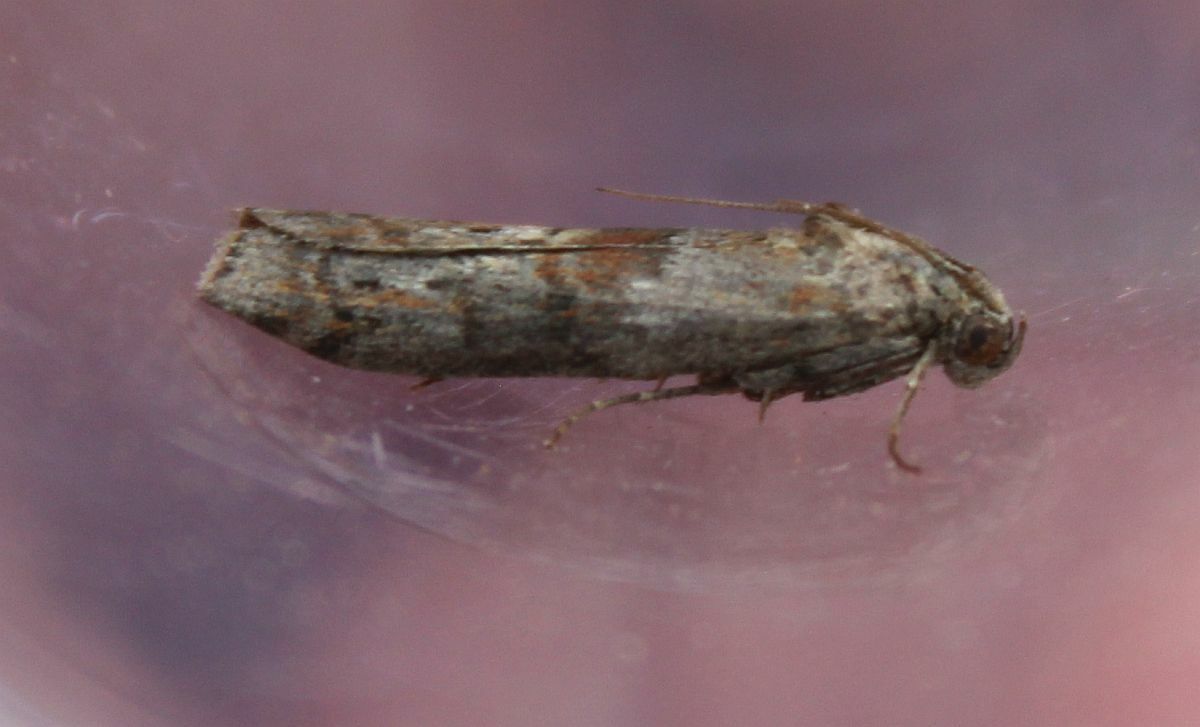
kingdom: Animalia
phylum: Arthropoda
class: Insecta
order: Lepidoptera
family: Pyralidae
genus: Phycita
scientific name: Phycita roborella
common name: Dotted oak knot-horn
